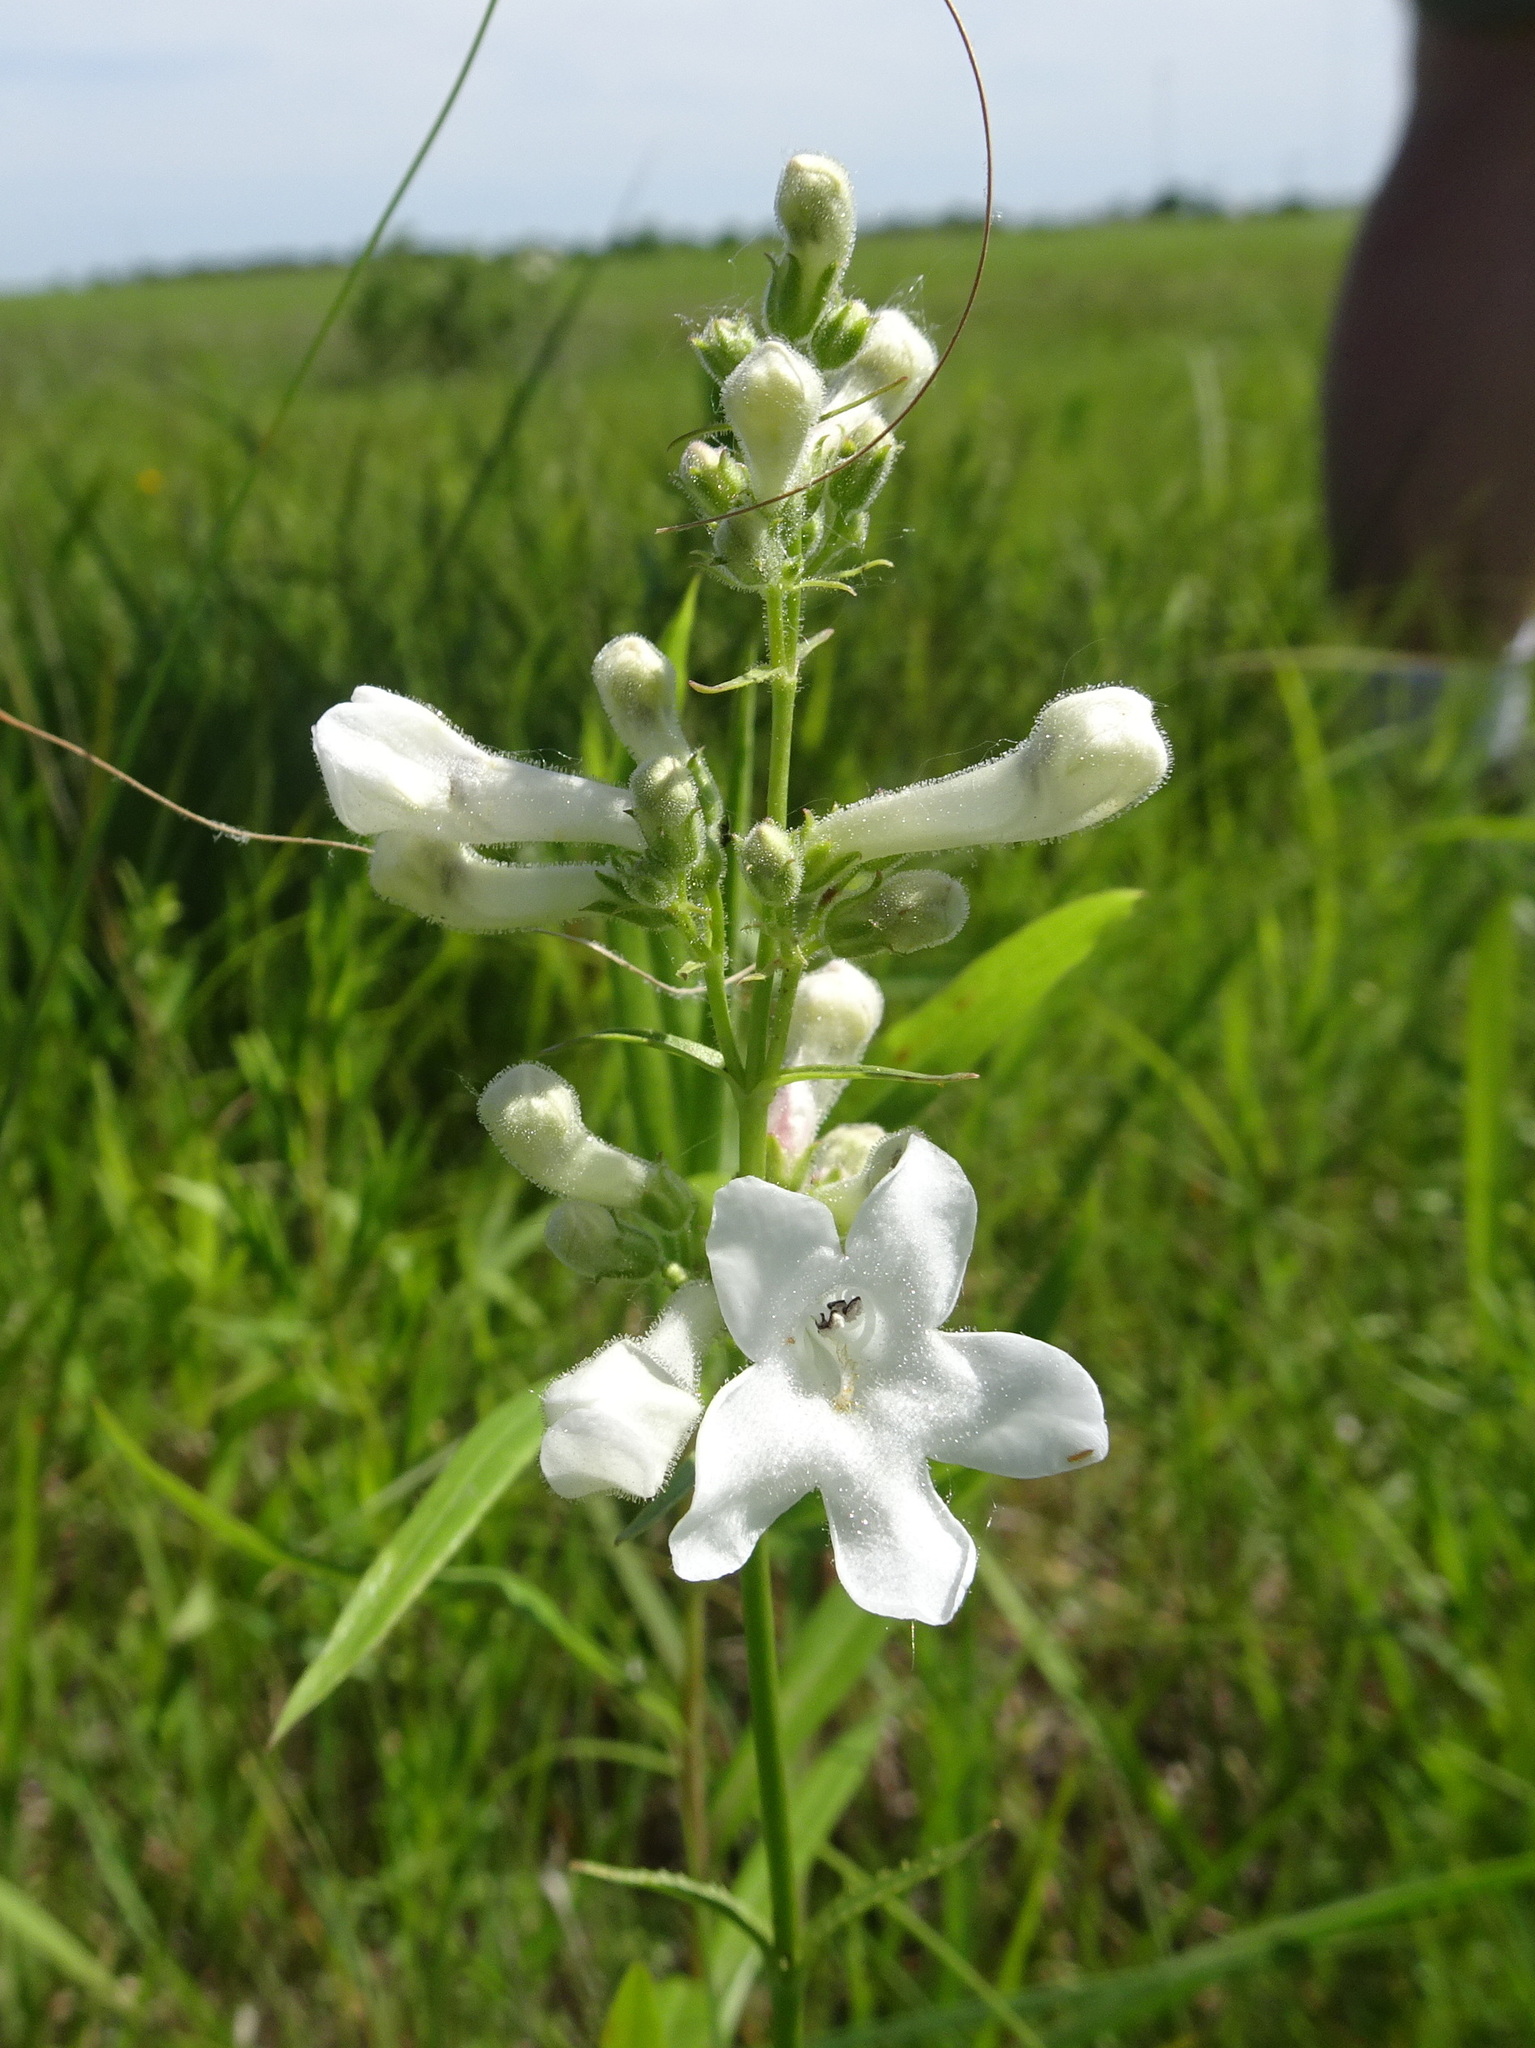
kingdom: Plantae
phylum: Tracheophyta
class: Magnoliopsida
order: Lamiales
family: Plantaginaceae
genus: Penstemon
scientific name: Penstemon tubaeflorus
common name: White wand beardtongue
